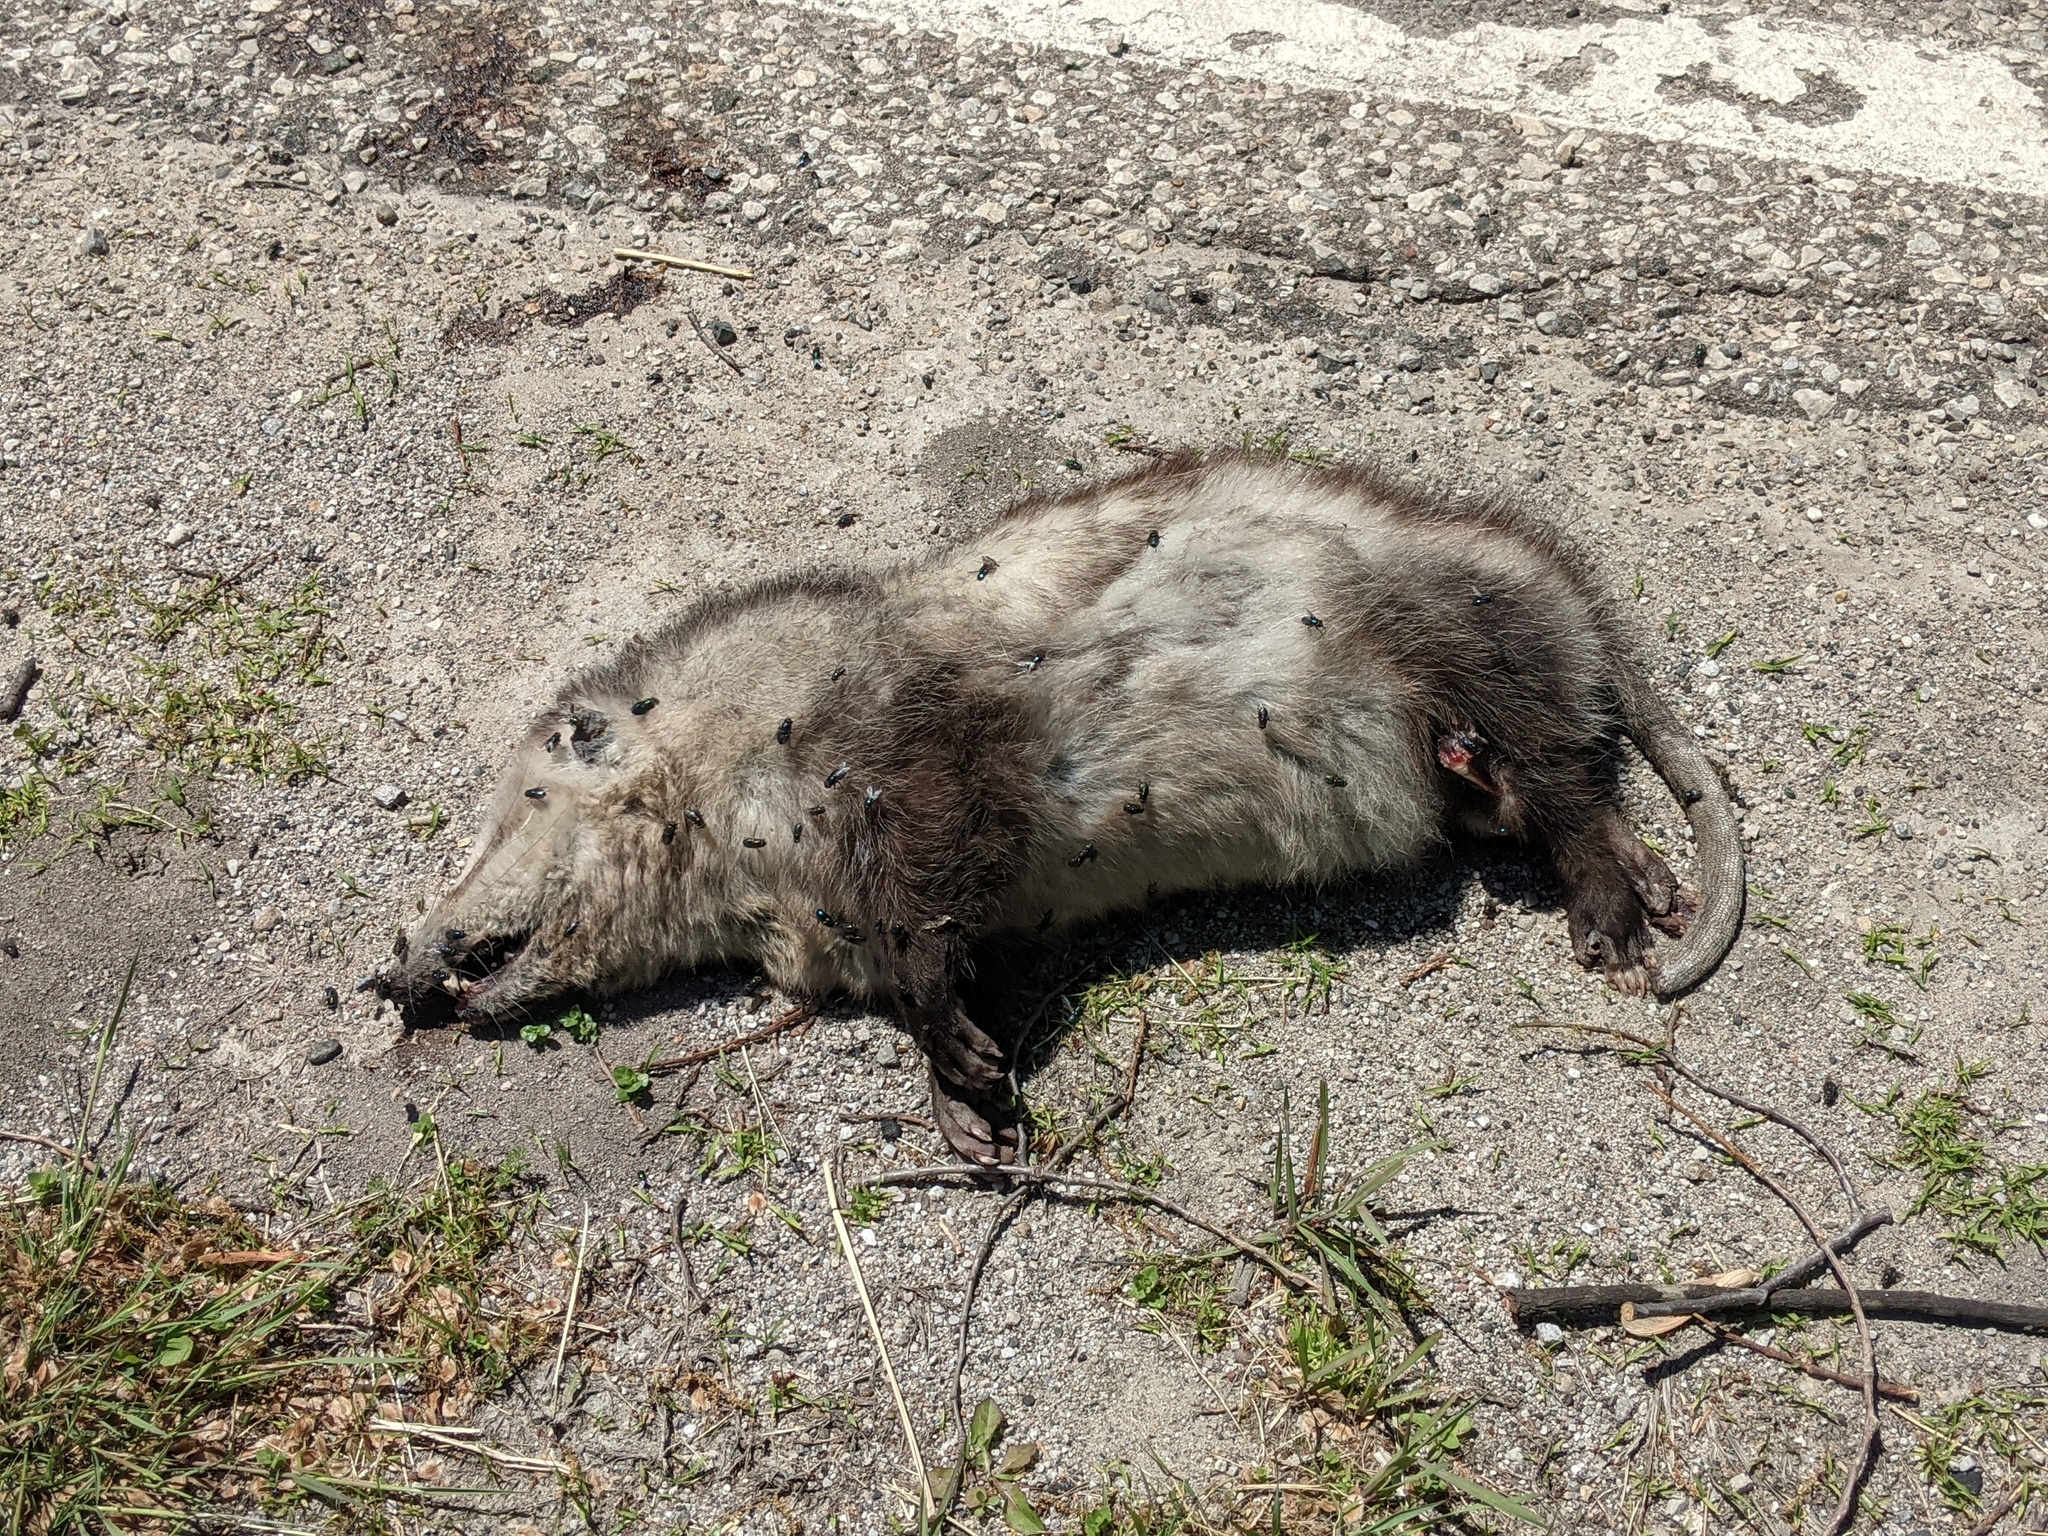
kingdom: Animalia
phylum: Chordata
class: Mammalia
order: Didelphimorphia
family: Didelphidae
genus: Didelphis
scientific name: Didelphis virginiana
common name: Virginia opossum
